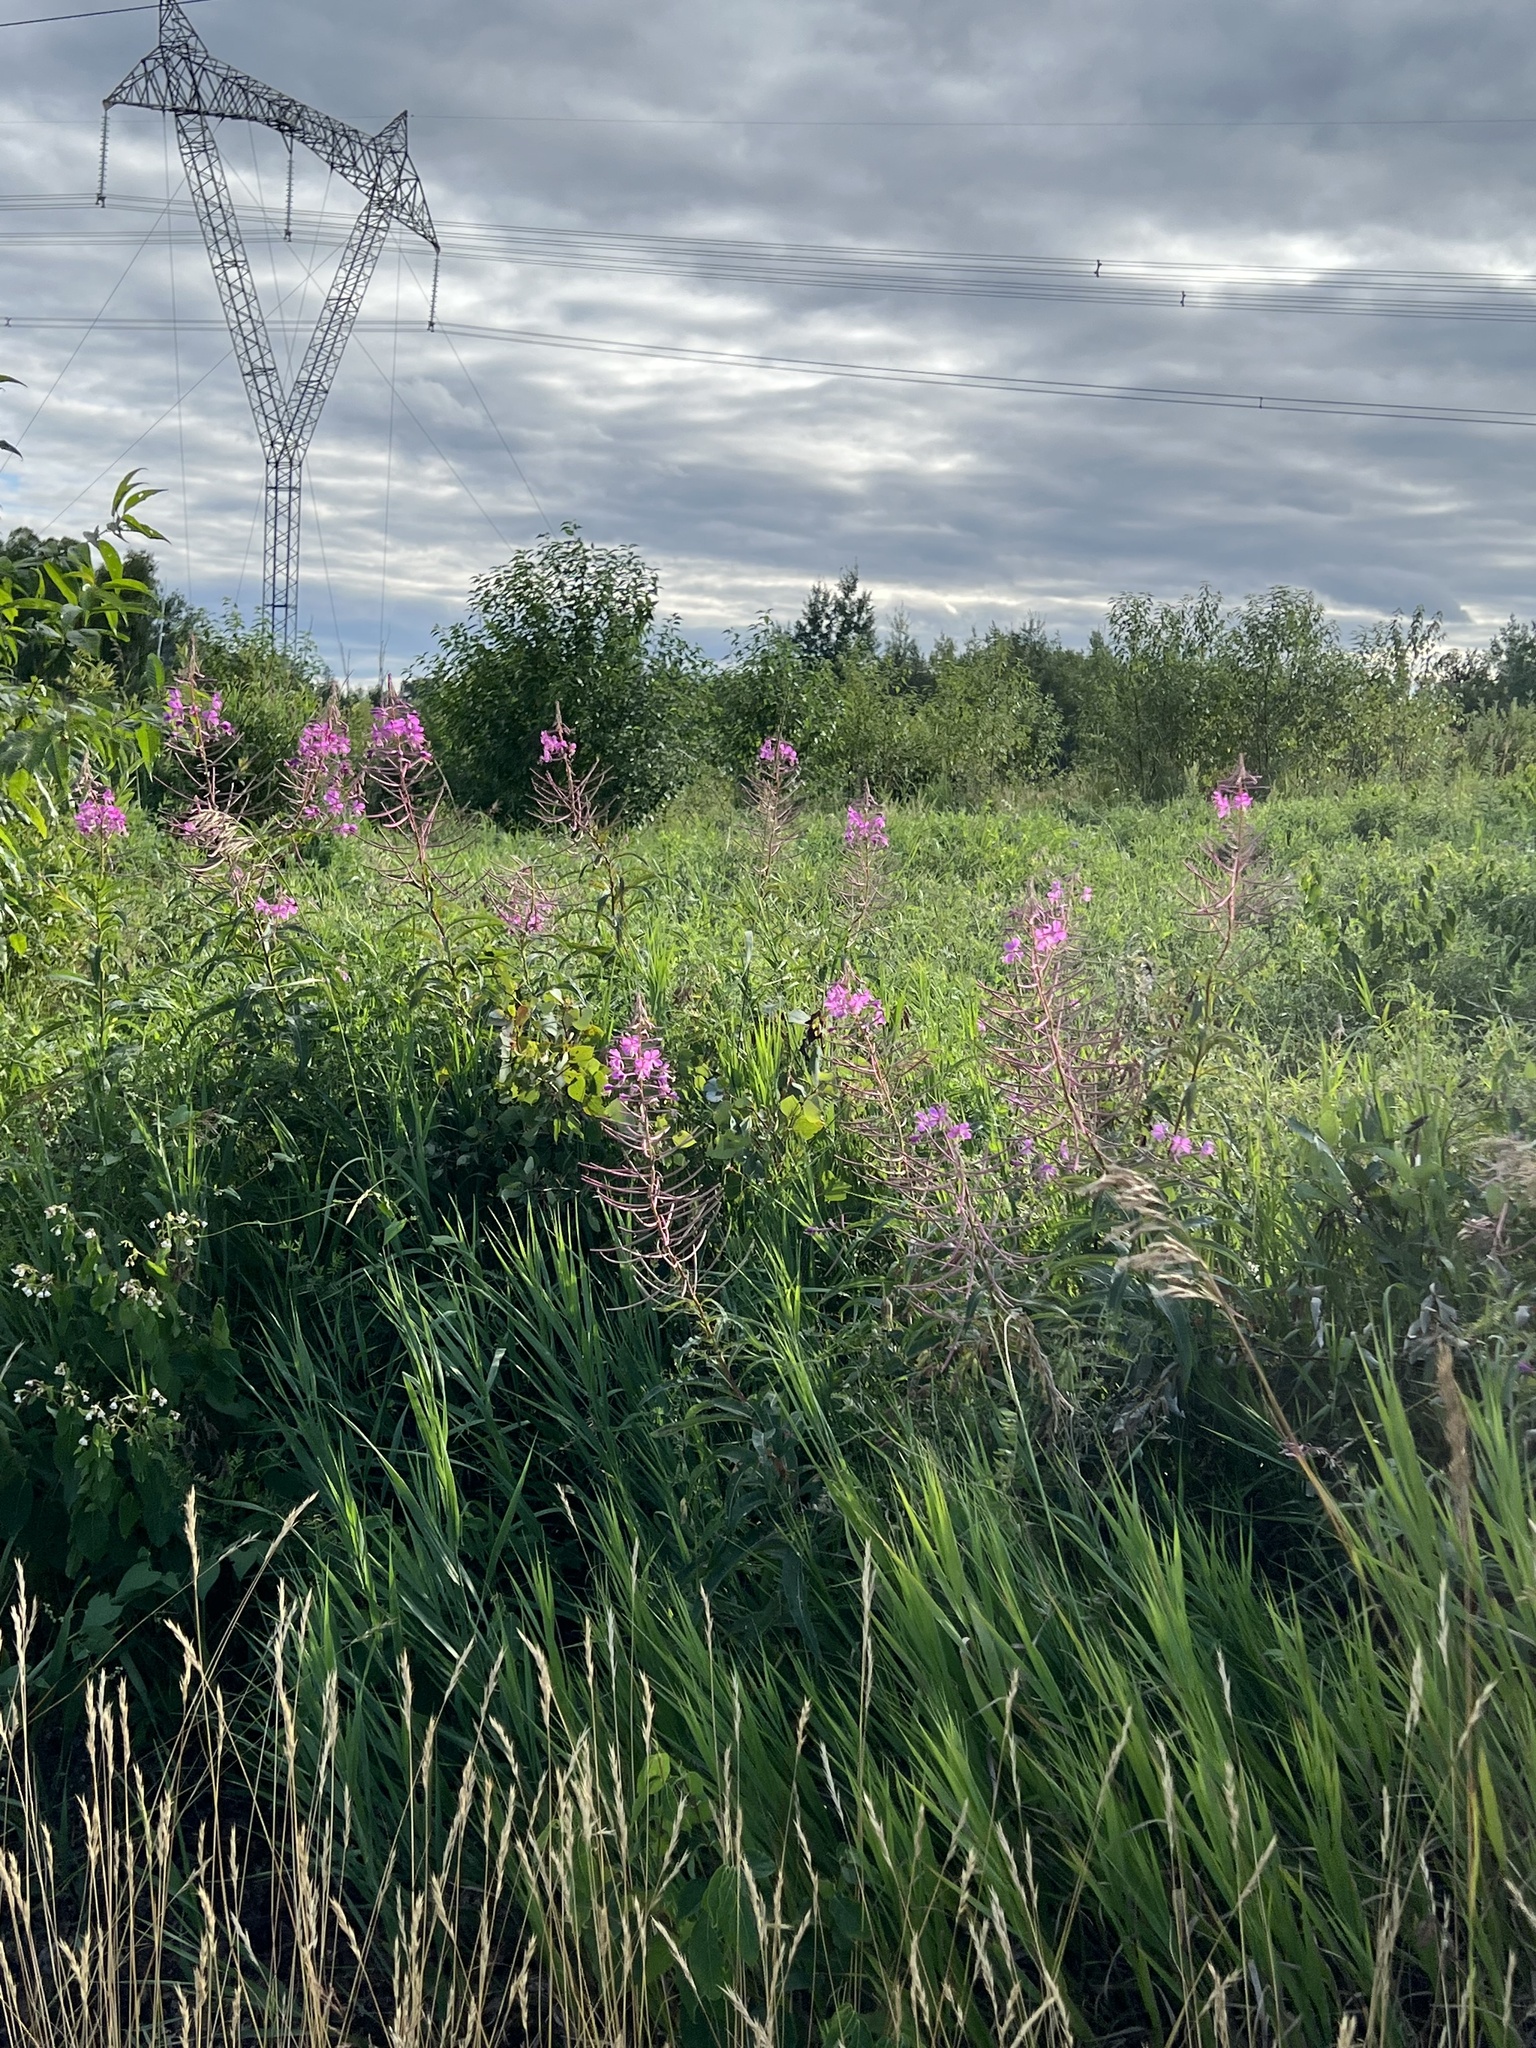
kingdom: Plantae
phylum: Tracheophyta
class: Magnoliopsida
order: Myrtales
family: Onagraceae
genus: Chamaenerion
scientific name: Chamaenerion angustifolium
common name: Fireweed
